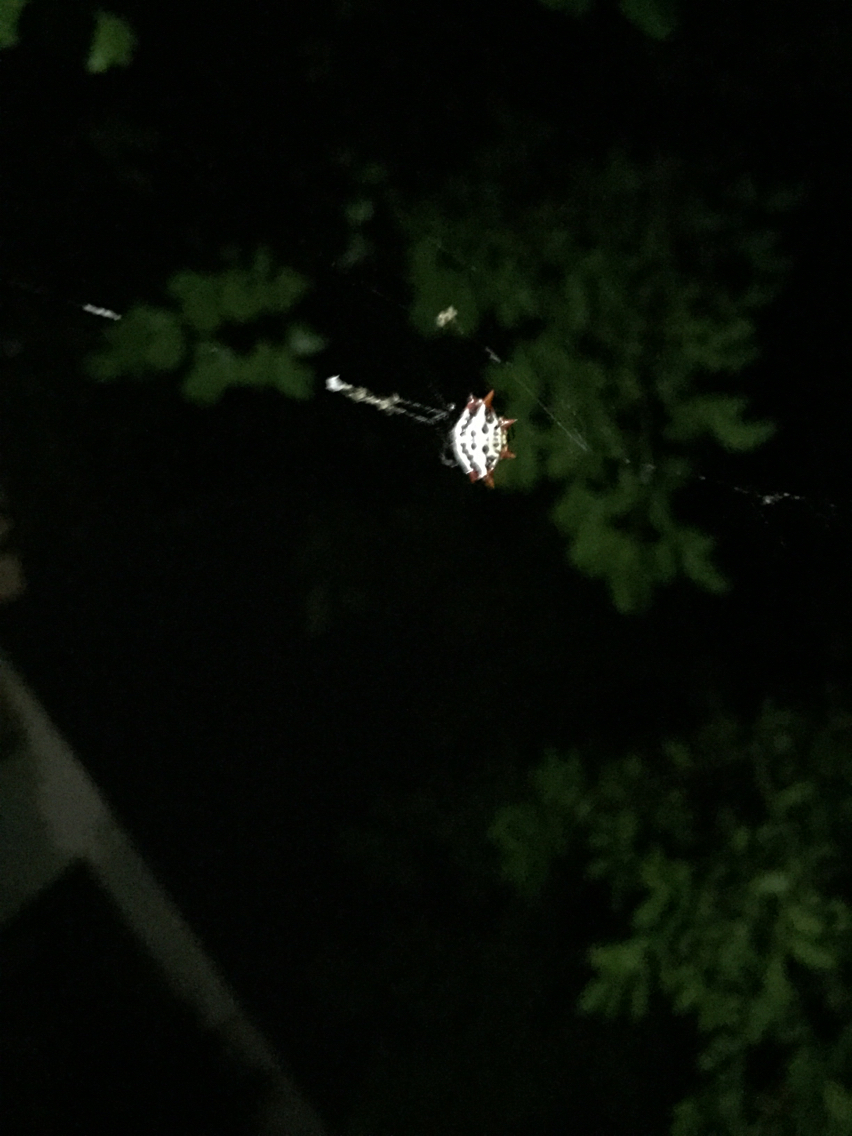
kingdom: Animalia
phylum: Arthropoda
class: Arachnida
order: Araneae
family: Araneidae
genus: Gasteracantha
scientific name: Gasteracantha cancriformis
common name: Orb weavers
